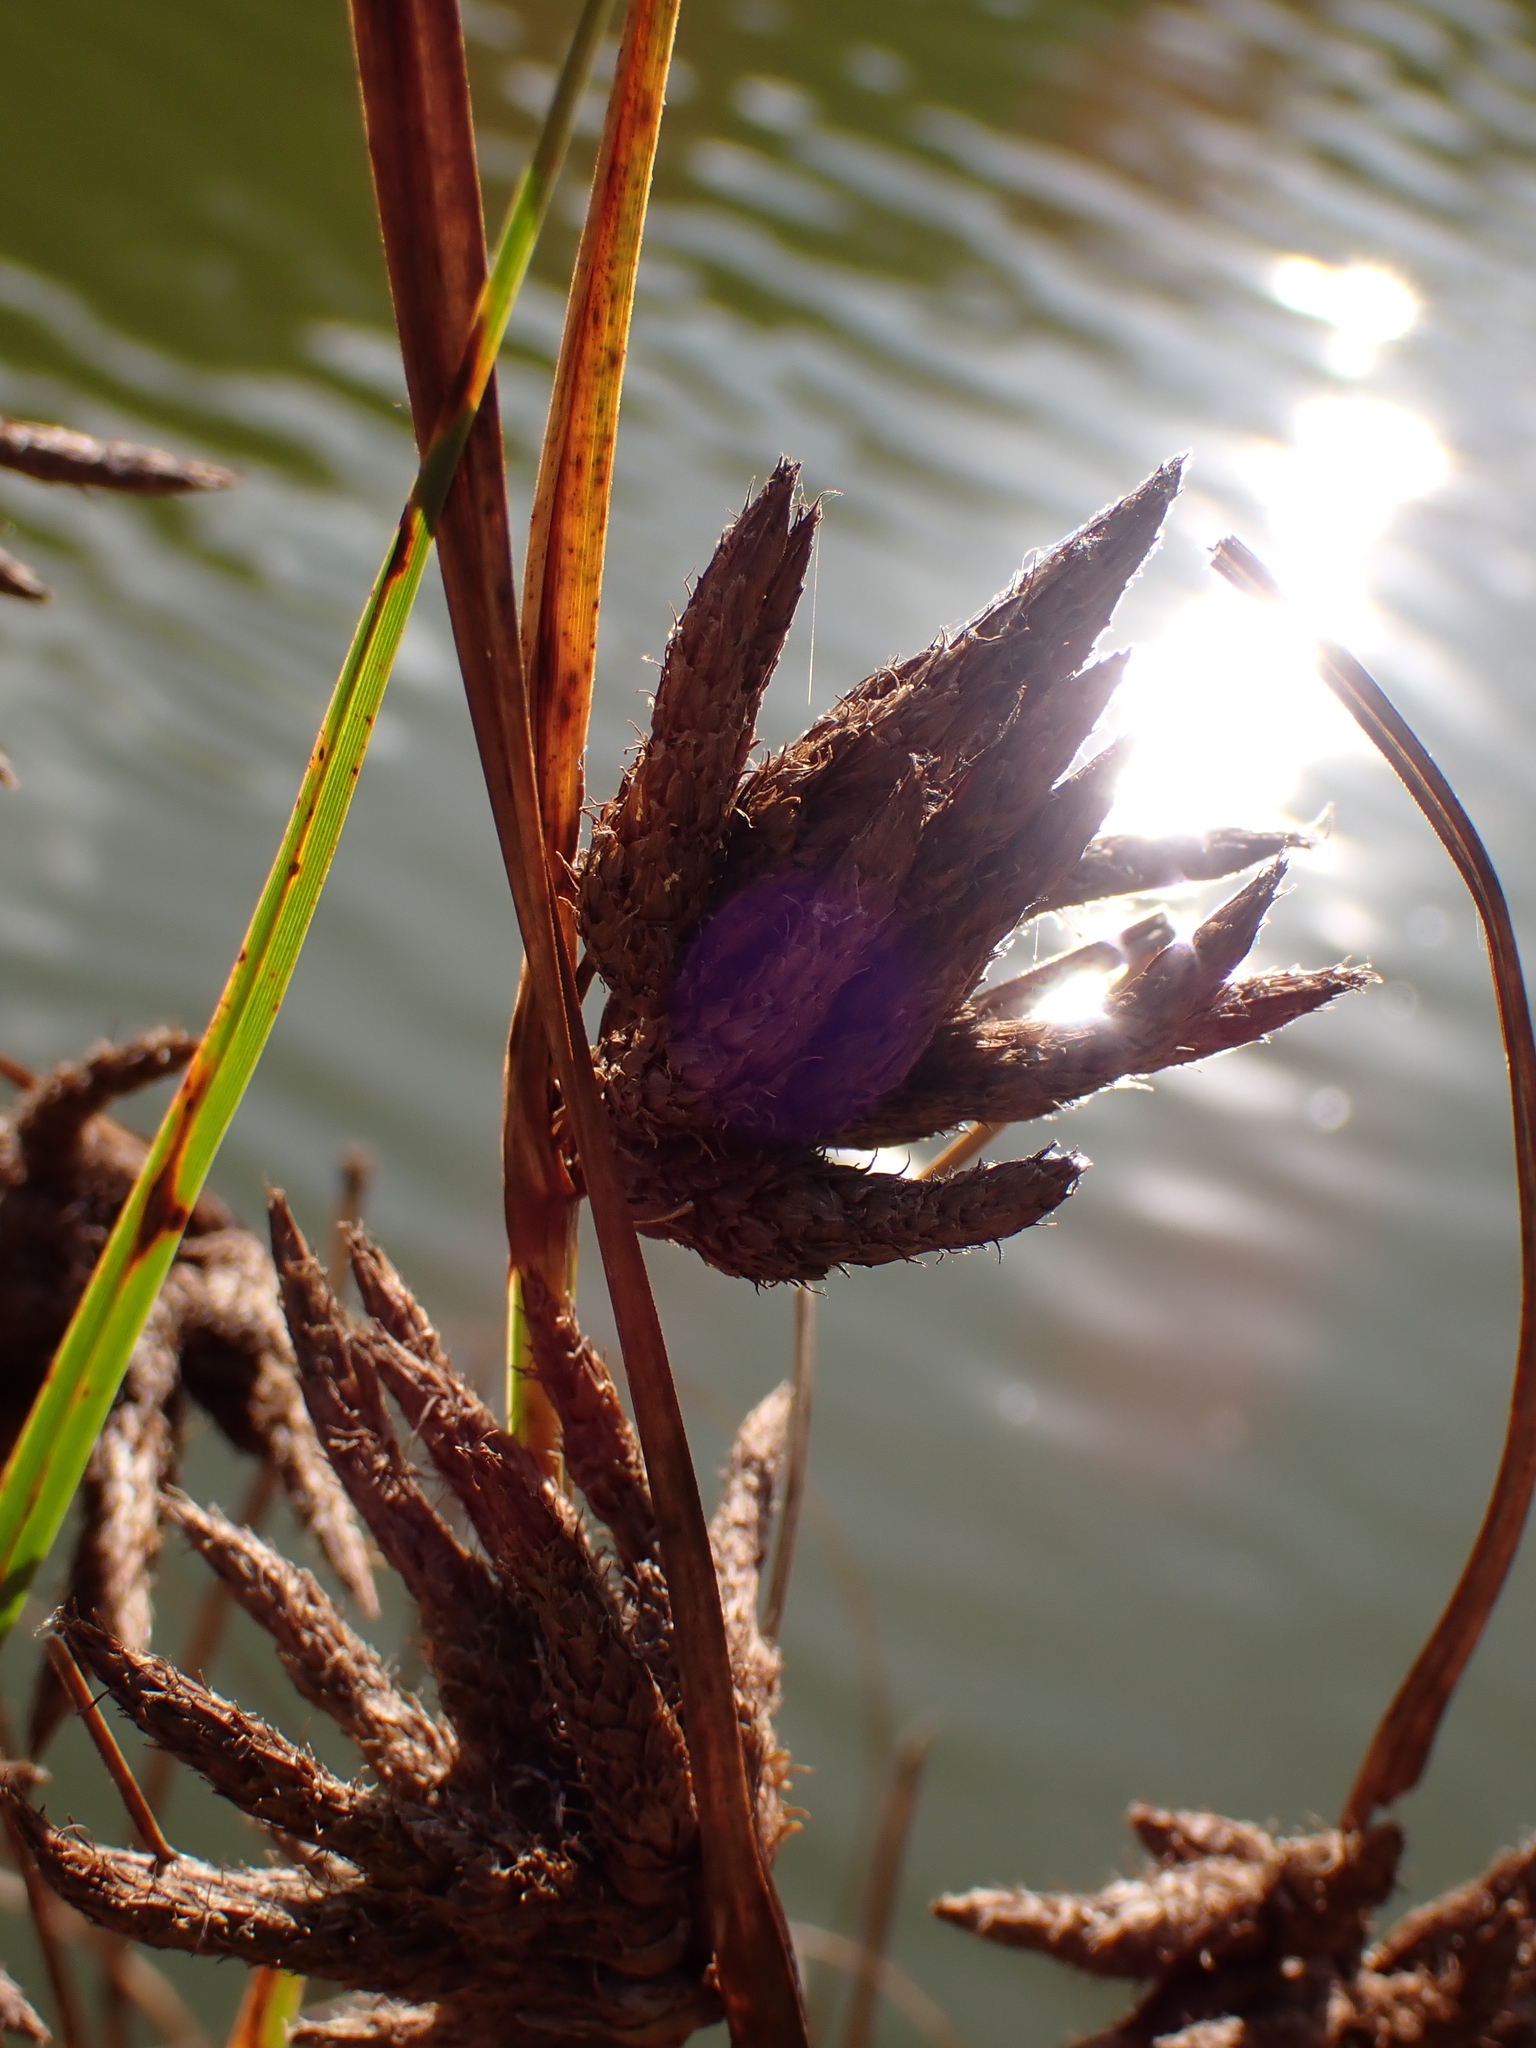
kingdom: Plantae
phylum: Tracheophyta
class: Liliopsida
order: Poales
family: Cyperaceae
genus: Bolboschoenus
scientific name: Bolboschoenus maritimus
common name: Sea club-rush
